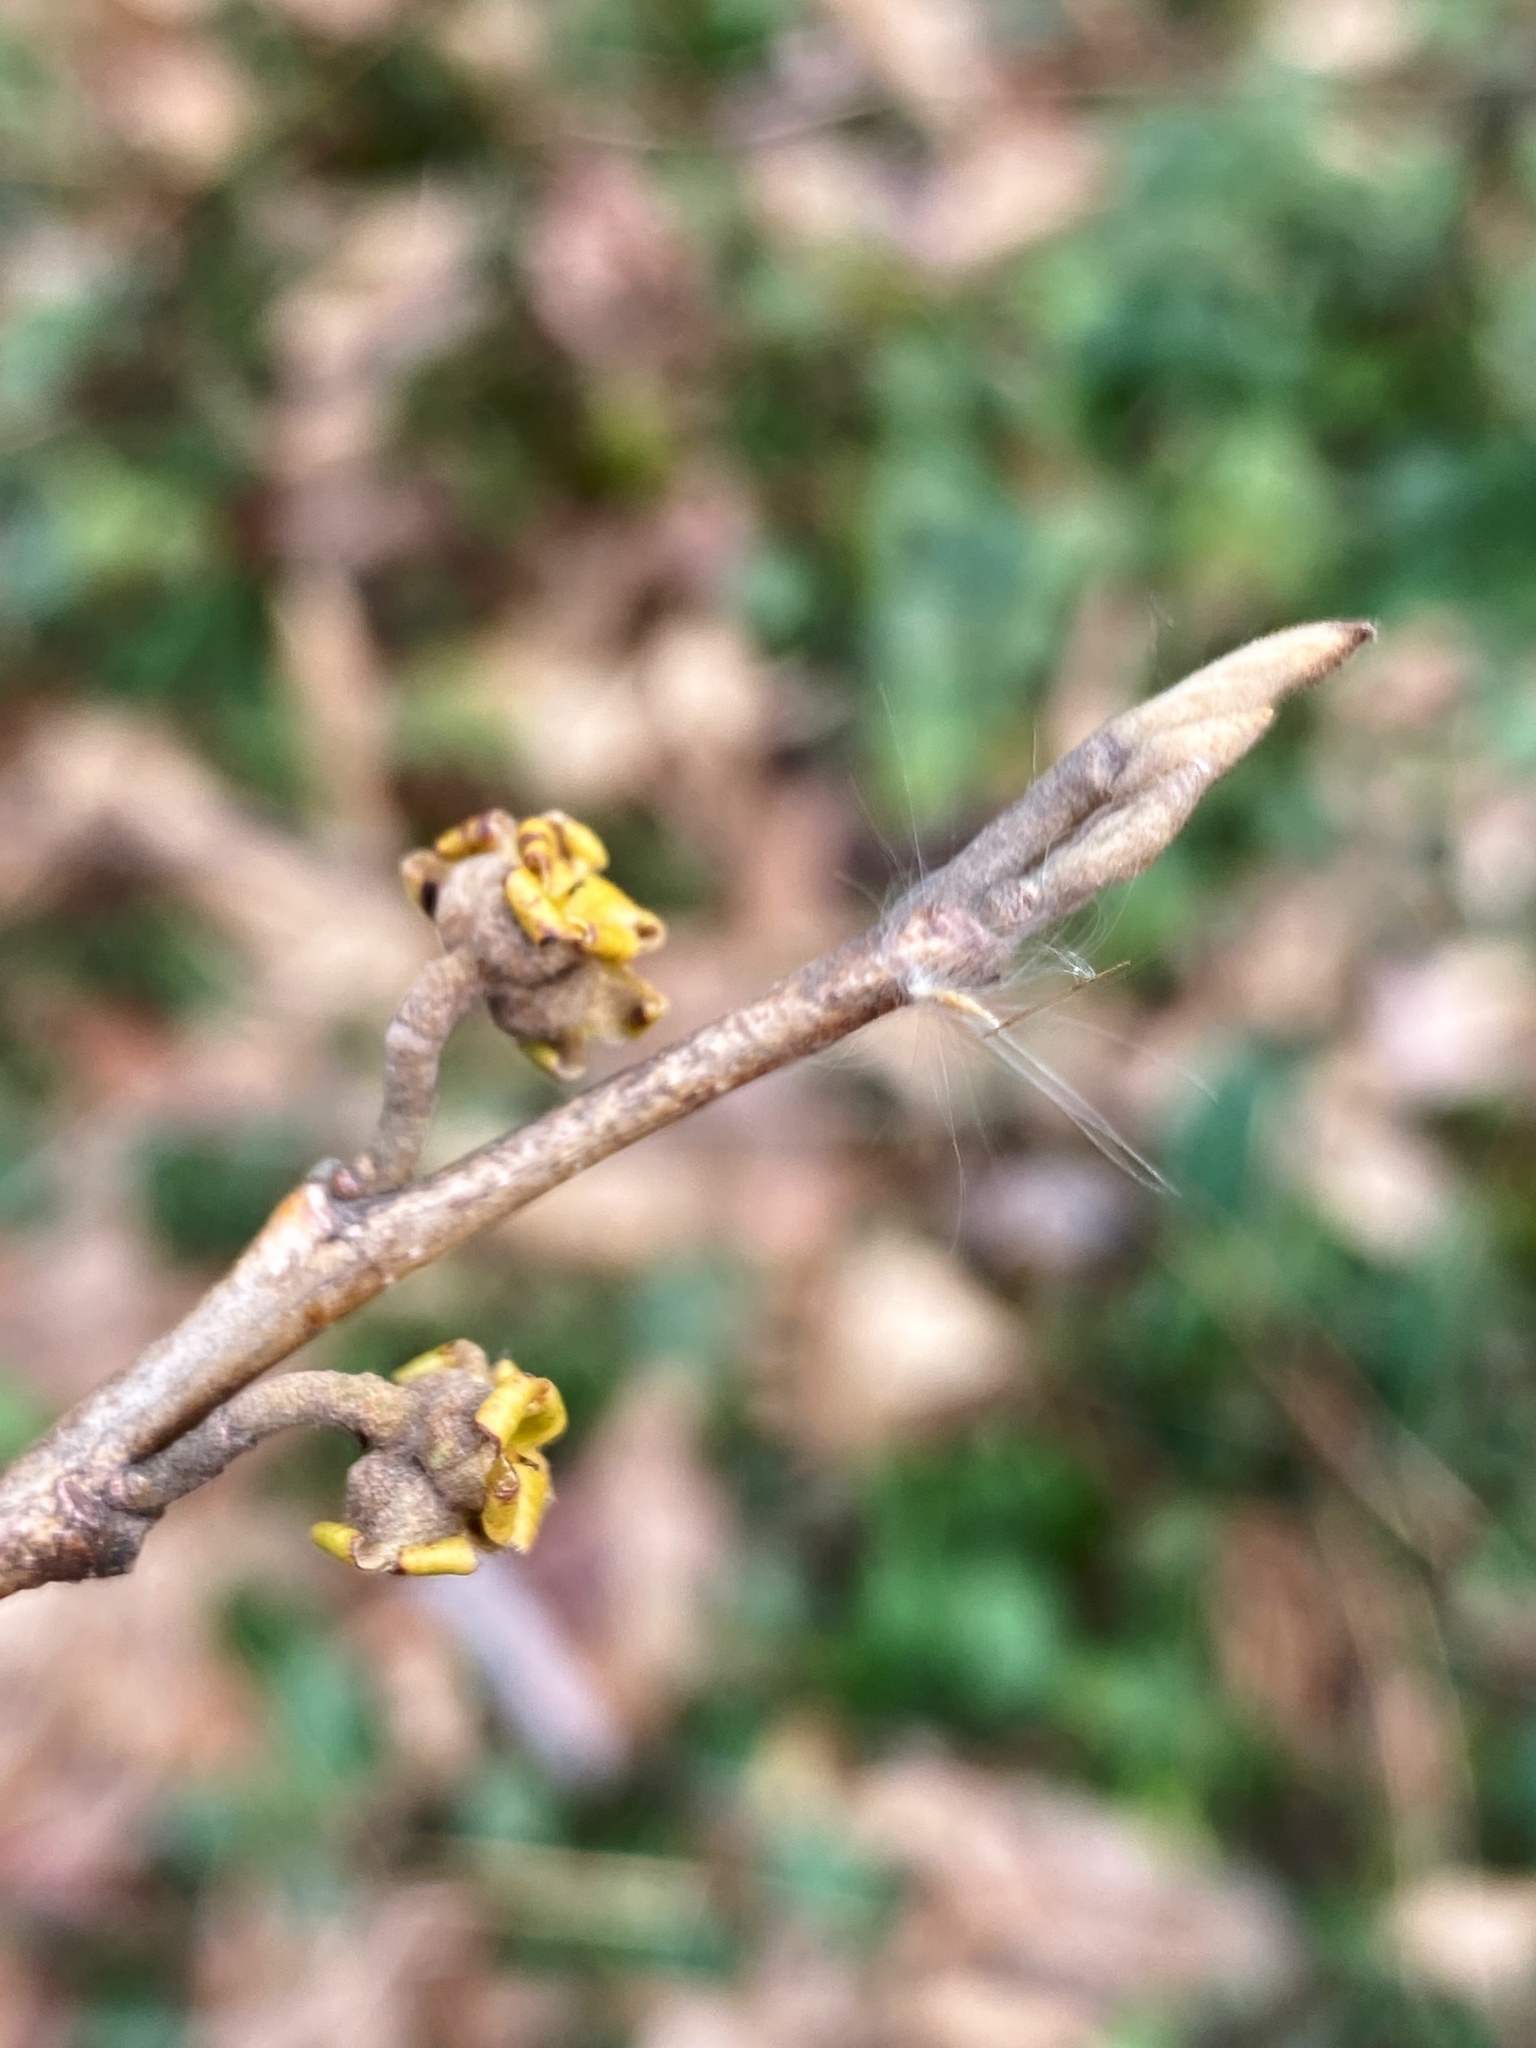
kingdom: Plantae
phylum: Tracheophyta
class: Magnoliopsida
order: Saxifragales
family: Hamamelidaceae
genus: Hamamelis
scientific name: Hamamelis virginiana
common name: Witch-hazel
